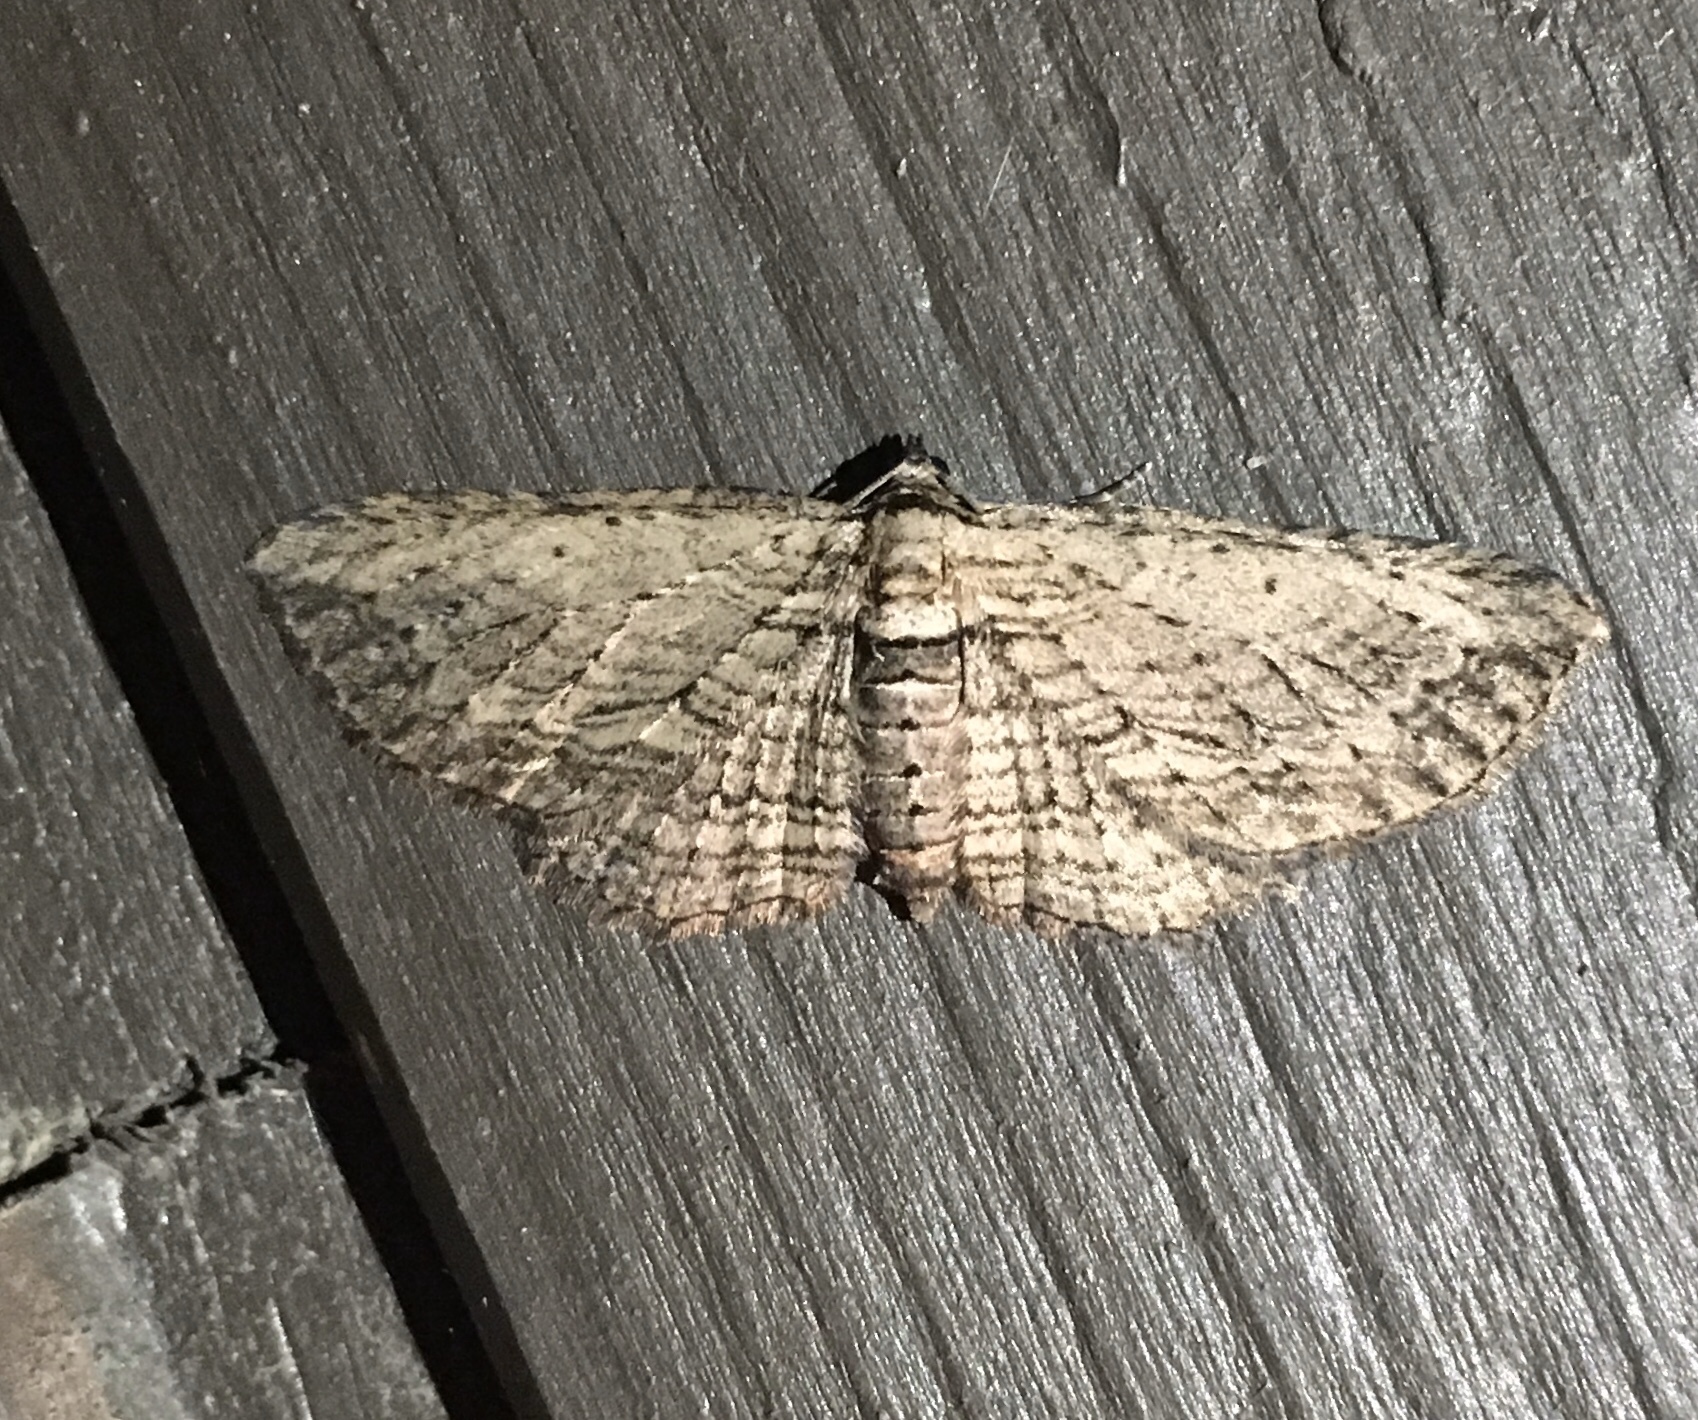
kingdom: Animalia
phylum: Arthropoda
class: Insecta
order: Lepidoptera
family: Geometridae
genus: Horisme
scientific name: Horisme intestinata
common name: Brown bark carpet
